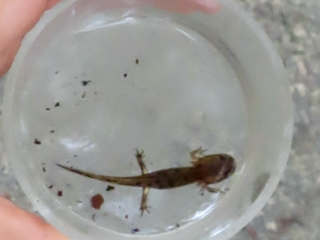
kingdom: Animalia
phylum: Chordata
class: Amphibia
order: Caudata
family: Salamandridae
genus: Salamandra
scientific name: Salamandra salamandra
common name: Fire salamander
